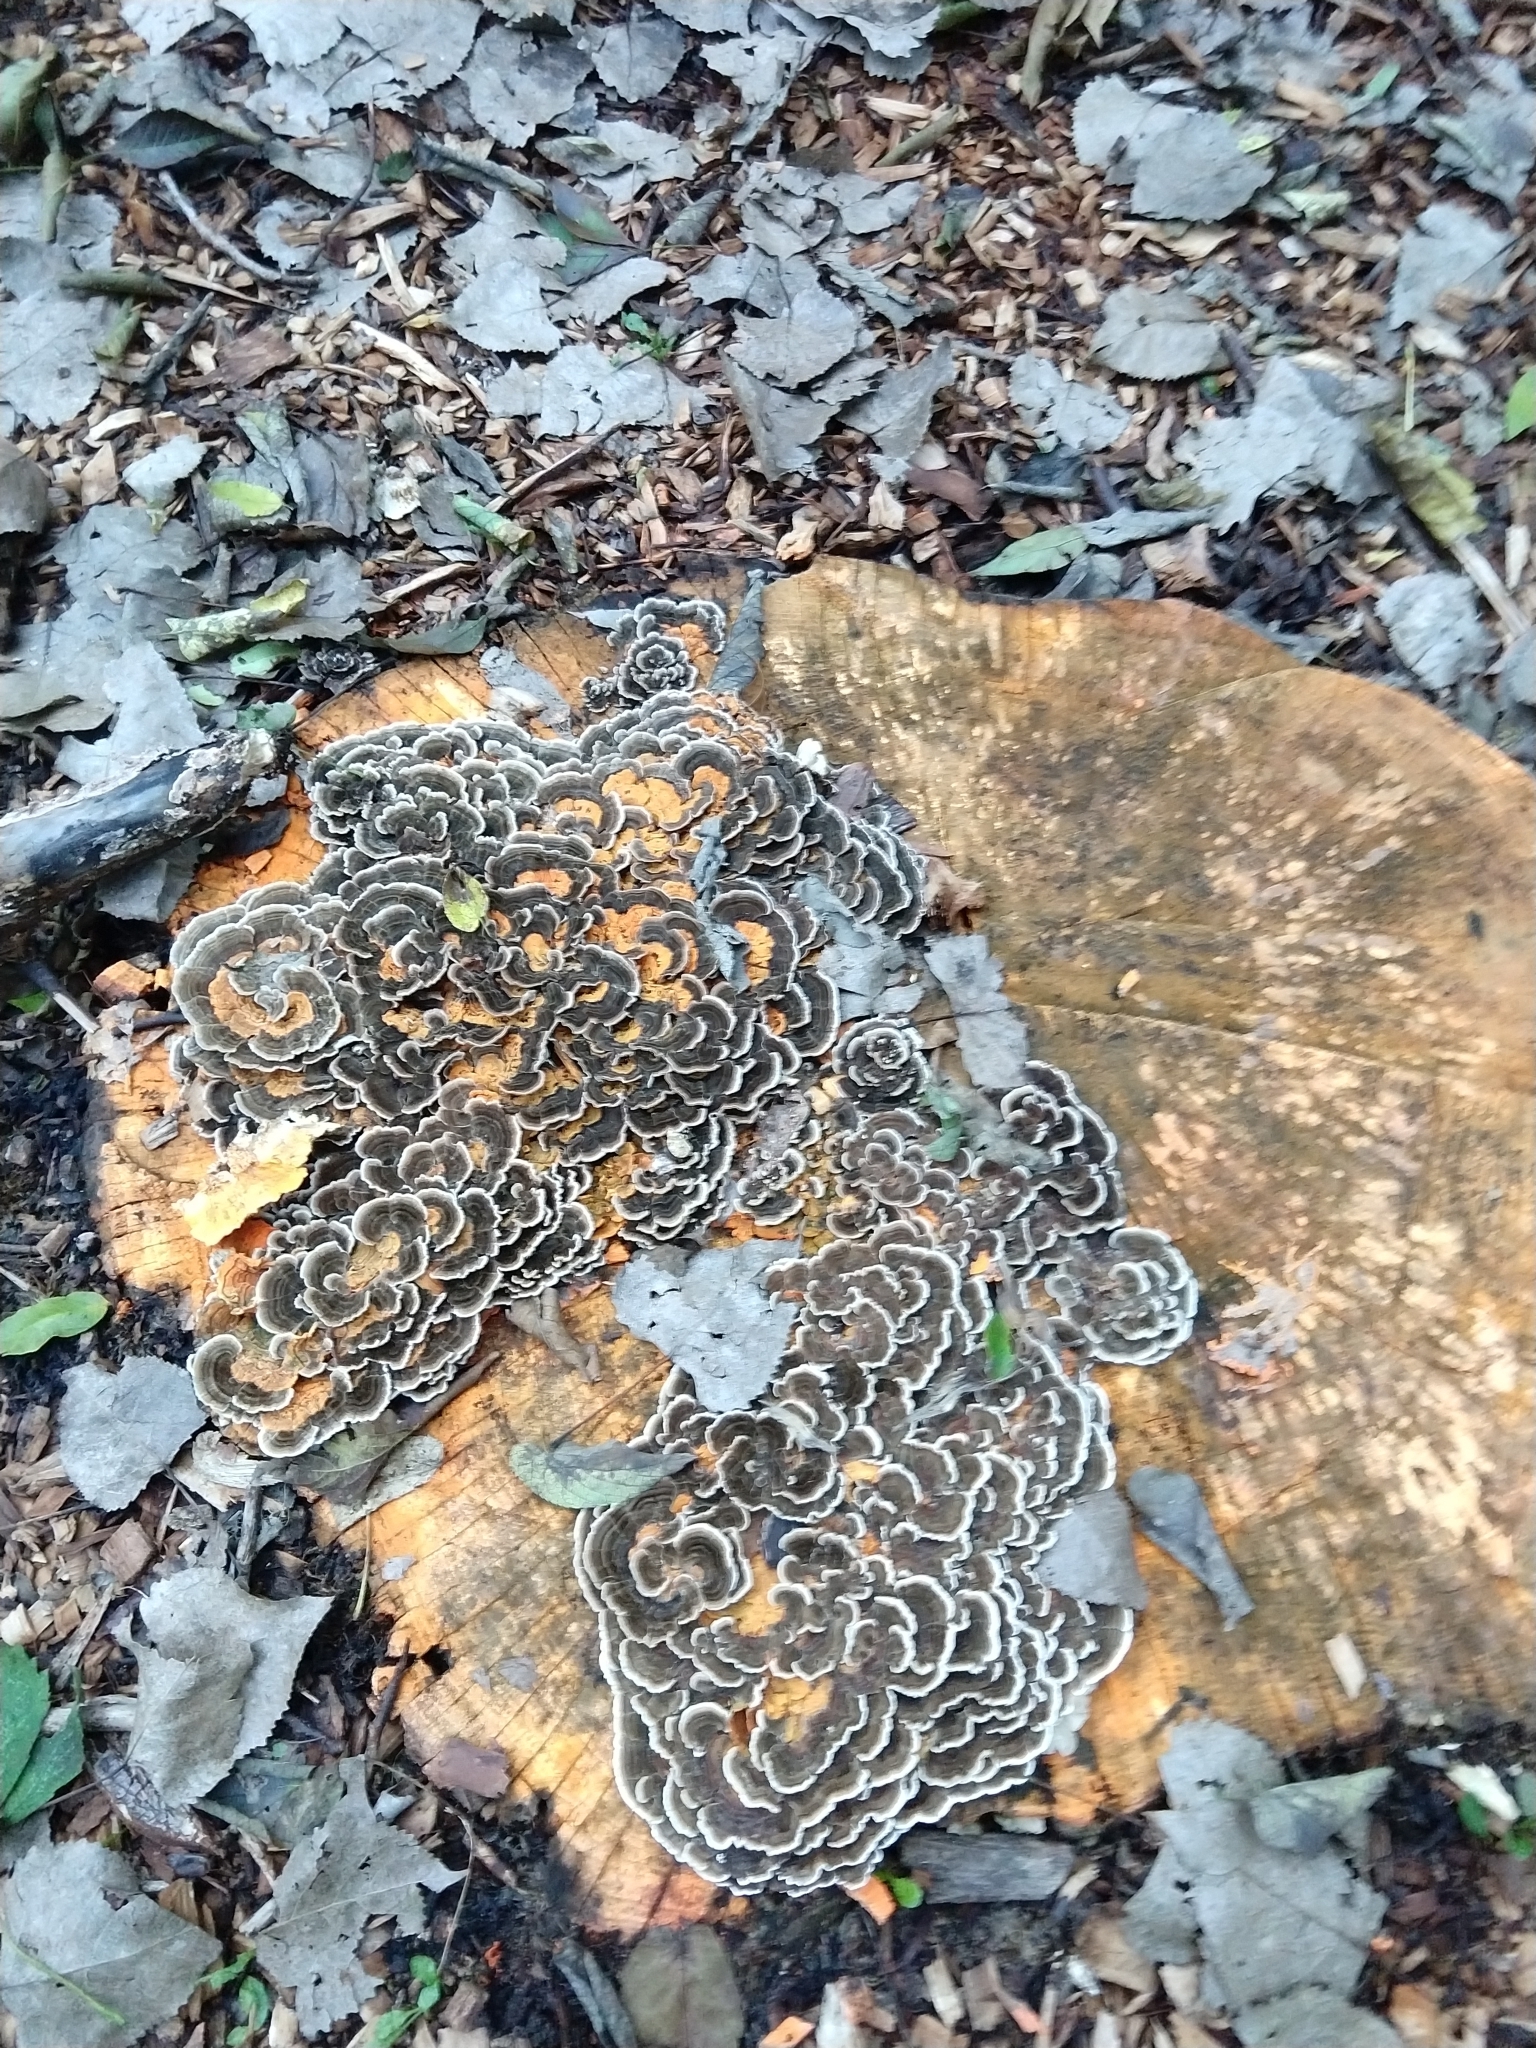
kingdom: Fungi
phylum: Basidiomycota
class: Agaricomycetes
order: Polyporales
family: Polyporaceae
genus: Trametes
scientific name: Trametes versicolor
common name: Turkeytail
